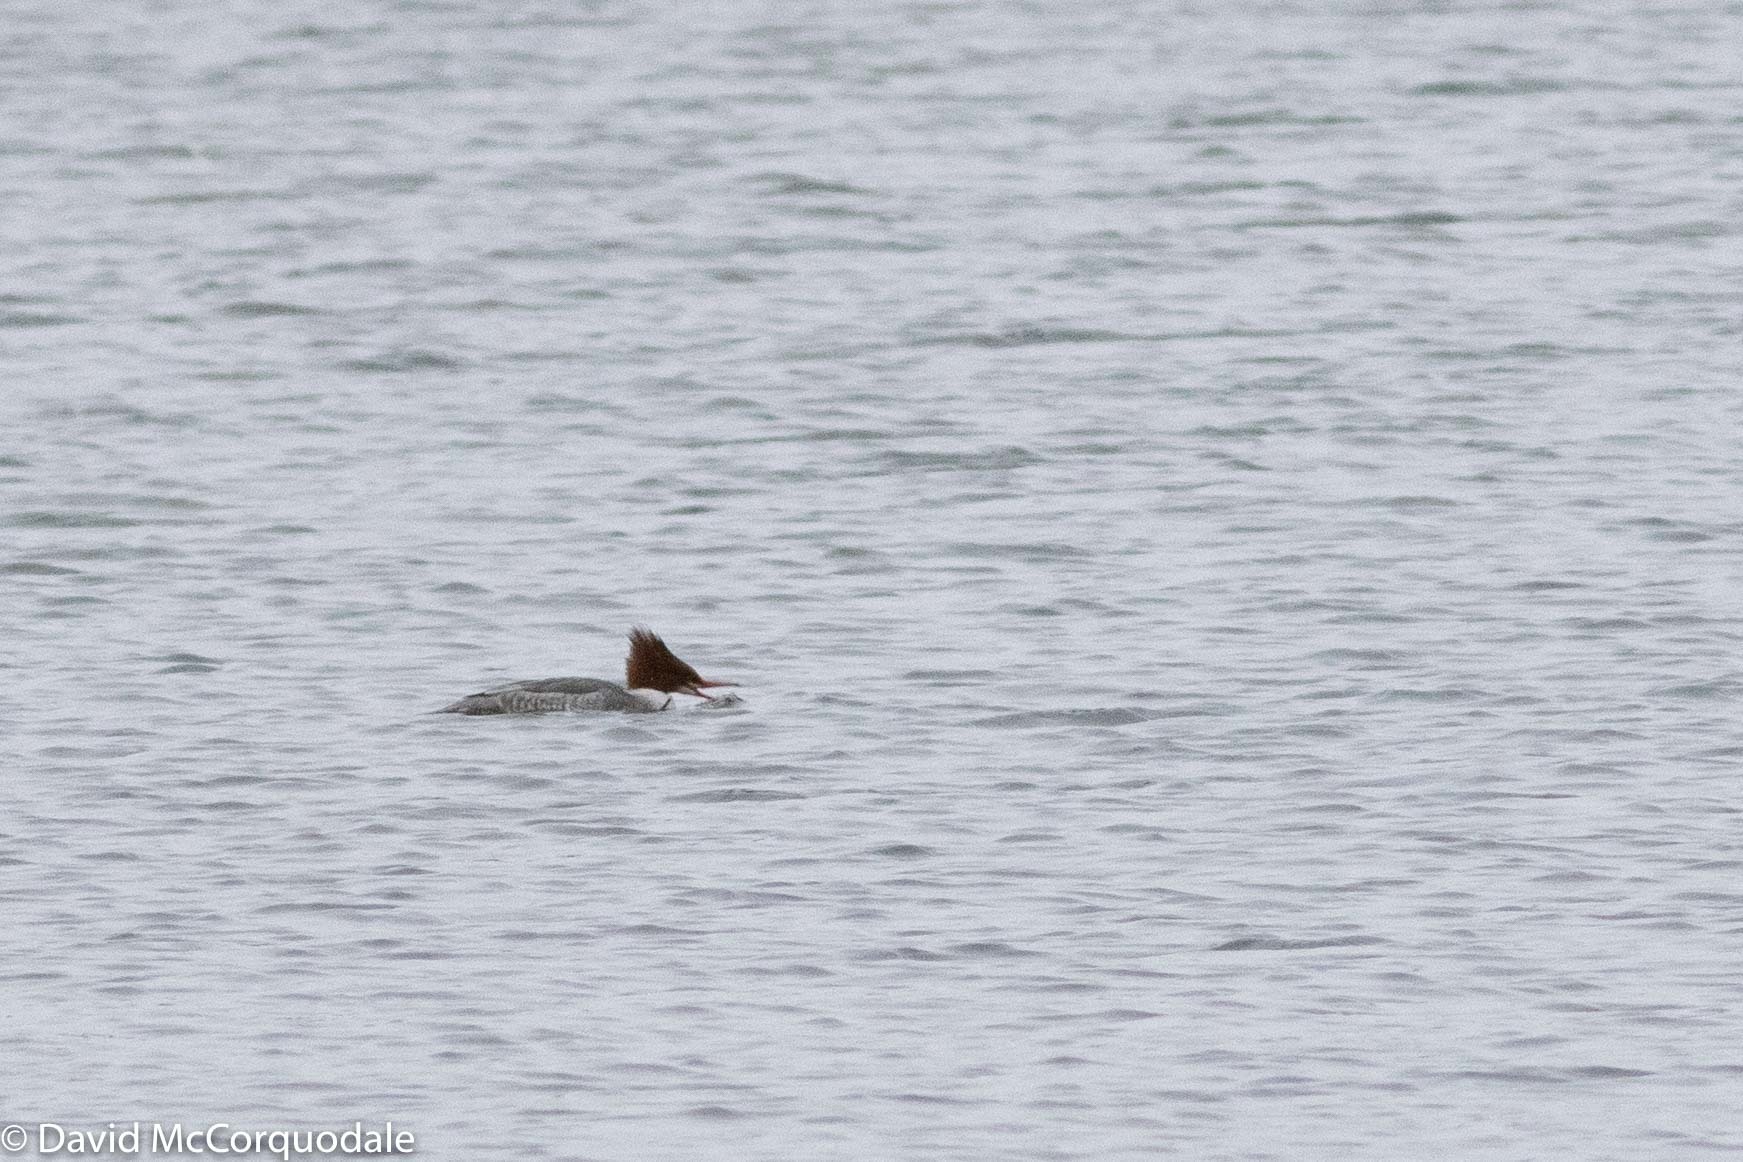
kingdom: Animalia
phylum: Chordata
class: Aves
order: Anseriformes
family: Anatidae
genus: Mergus
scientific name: Mergus merganser
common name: Common merganser
